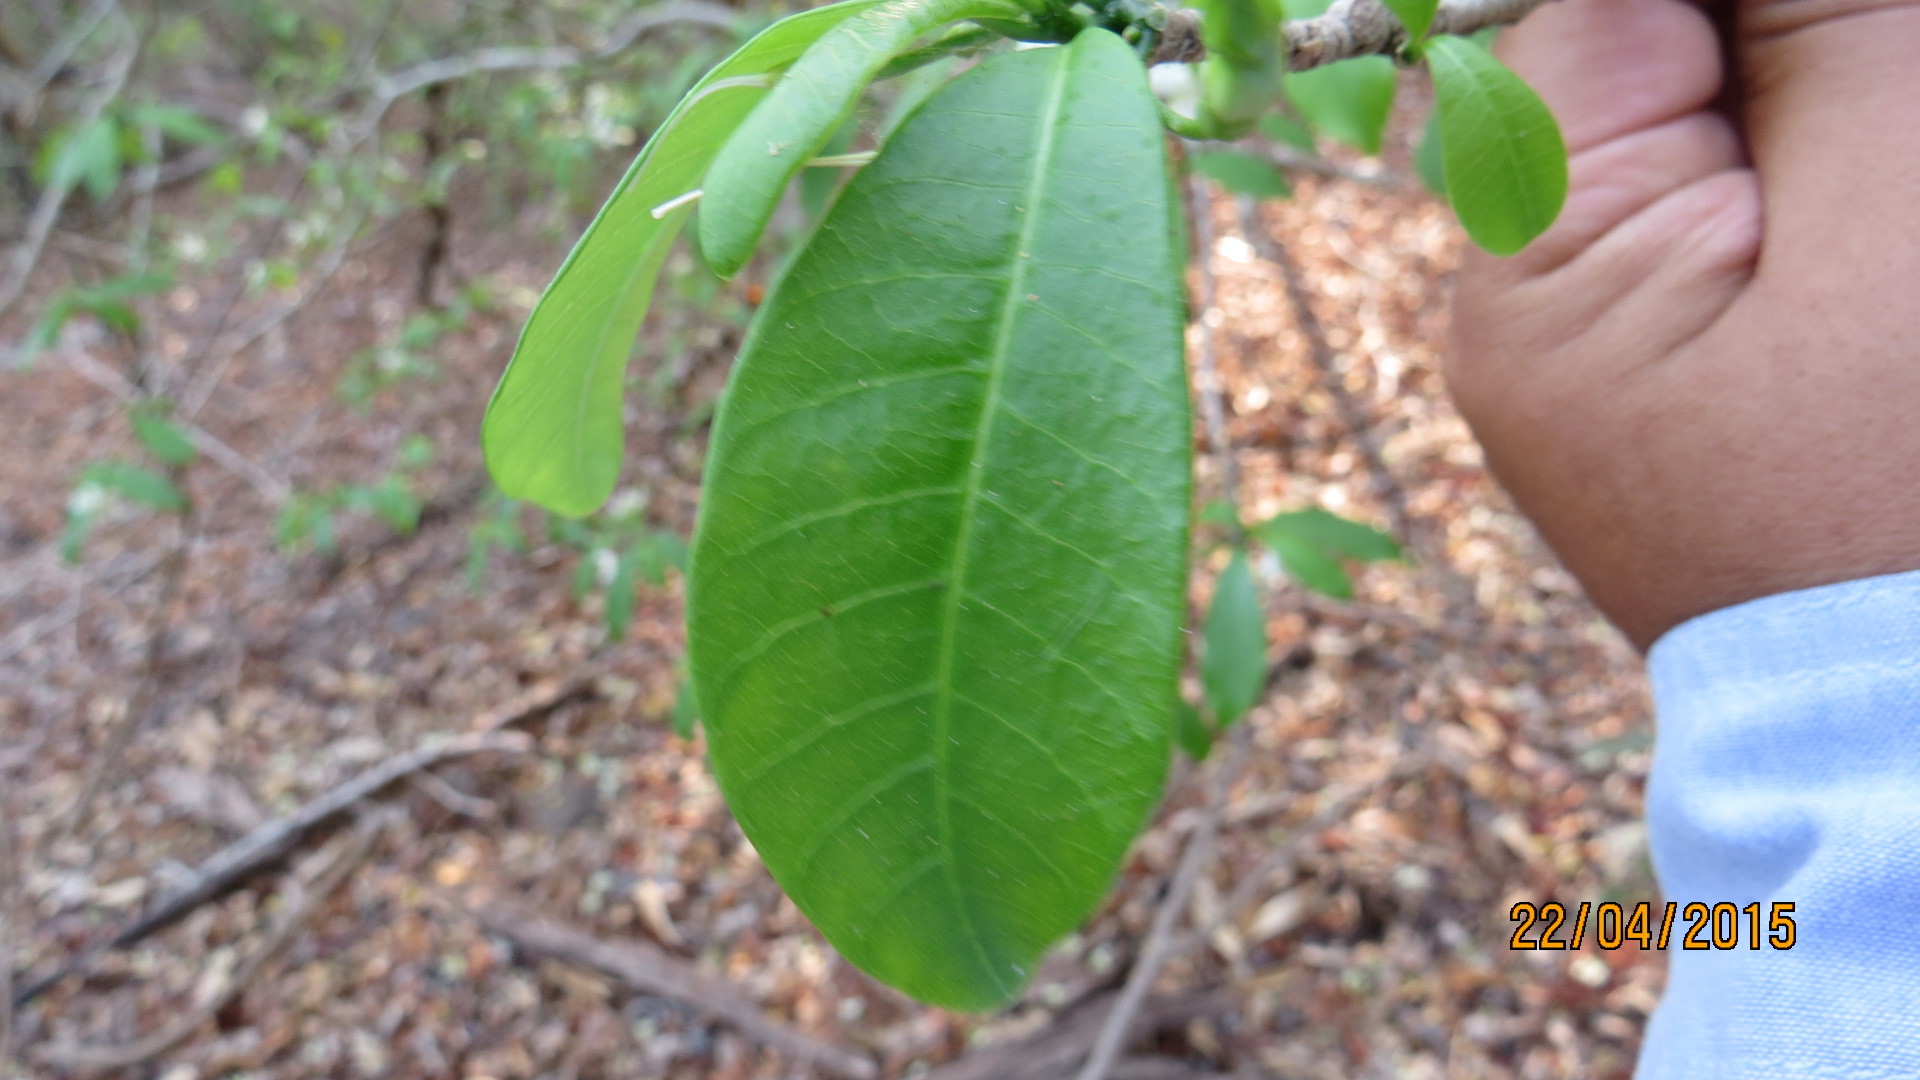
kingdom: Plantae
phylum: Tracheophyta
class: Magnoliopsida
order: Gentianales
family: Apocynaceae
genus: Tabernaemontana
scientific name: Tabernaemontana amygdalifolia
